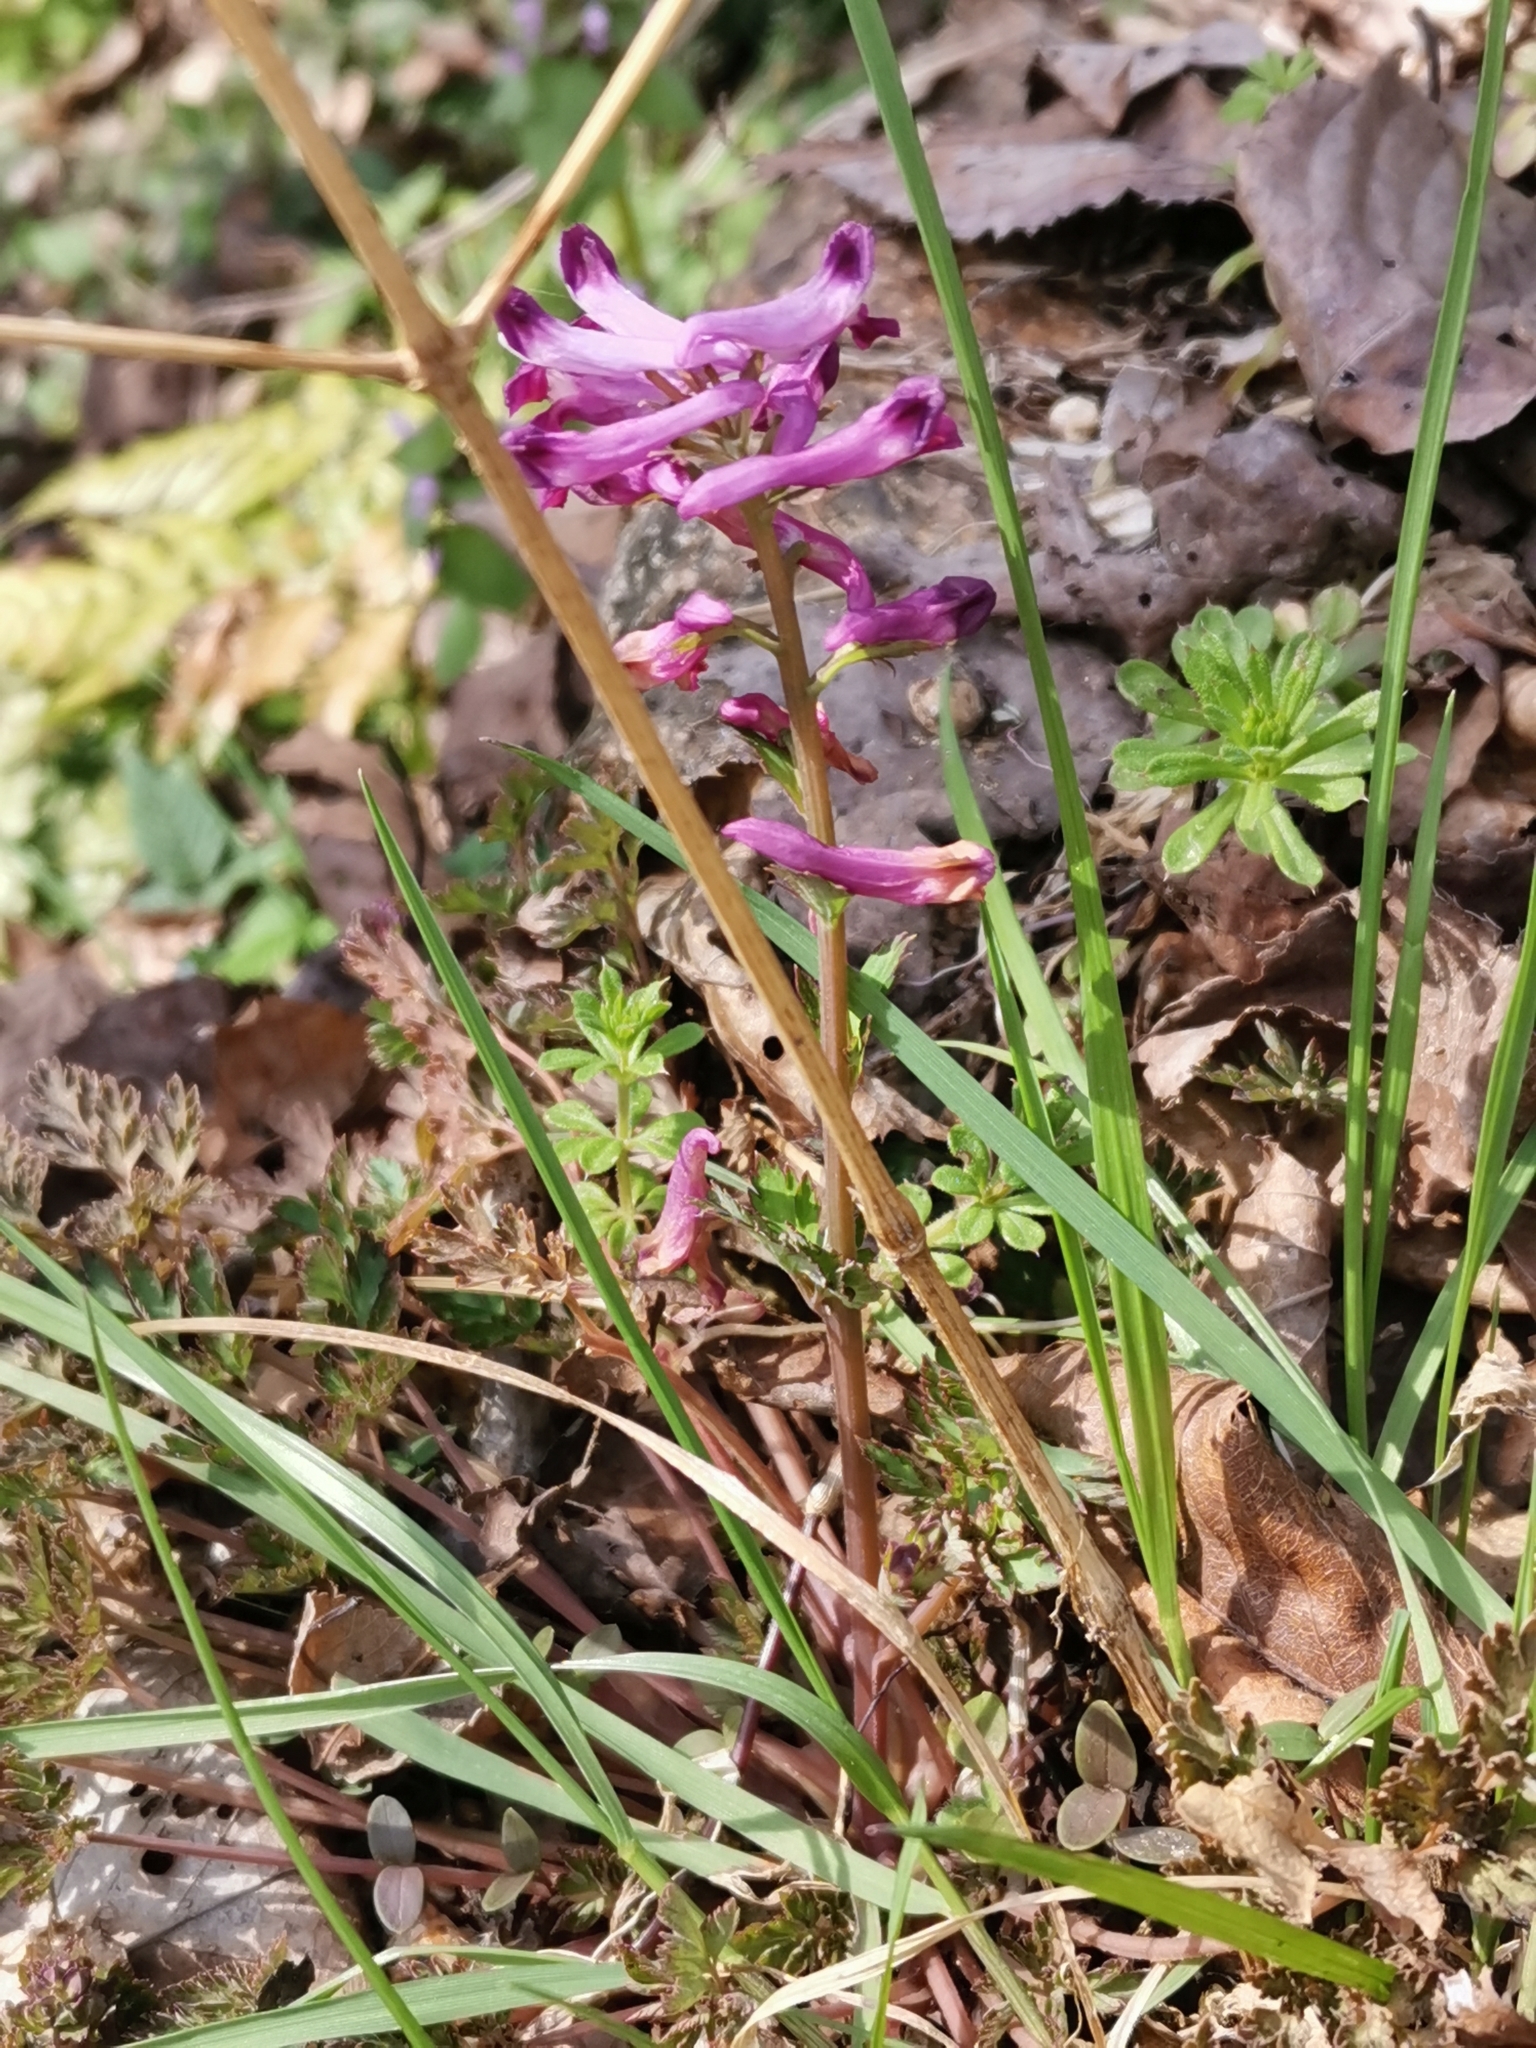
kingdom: Plantae
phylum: Tracheophyta
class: Magnoliopsida
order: Ranunculales
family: Papaveraceae
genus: Corydalis
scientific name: Corydalis incisa
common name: Incised fumewort
